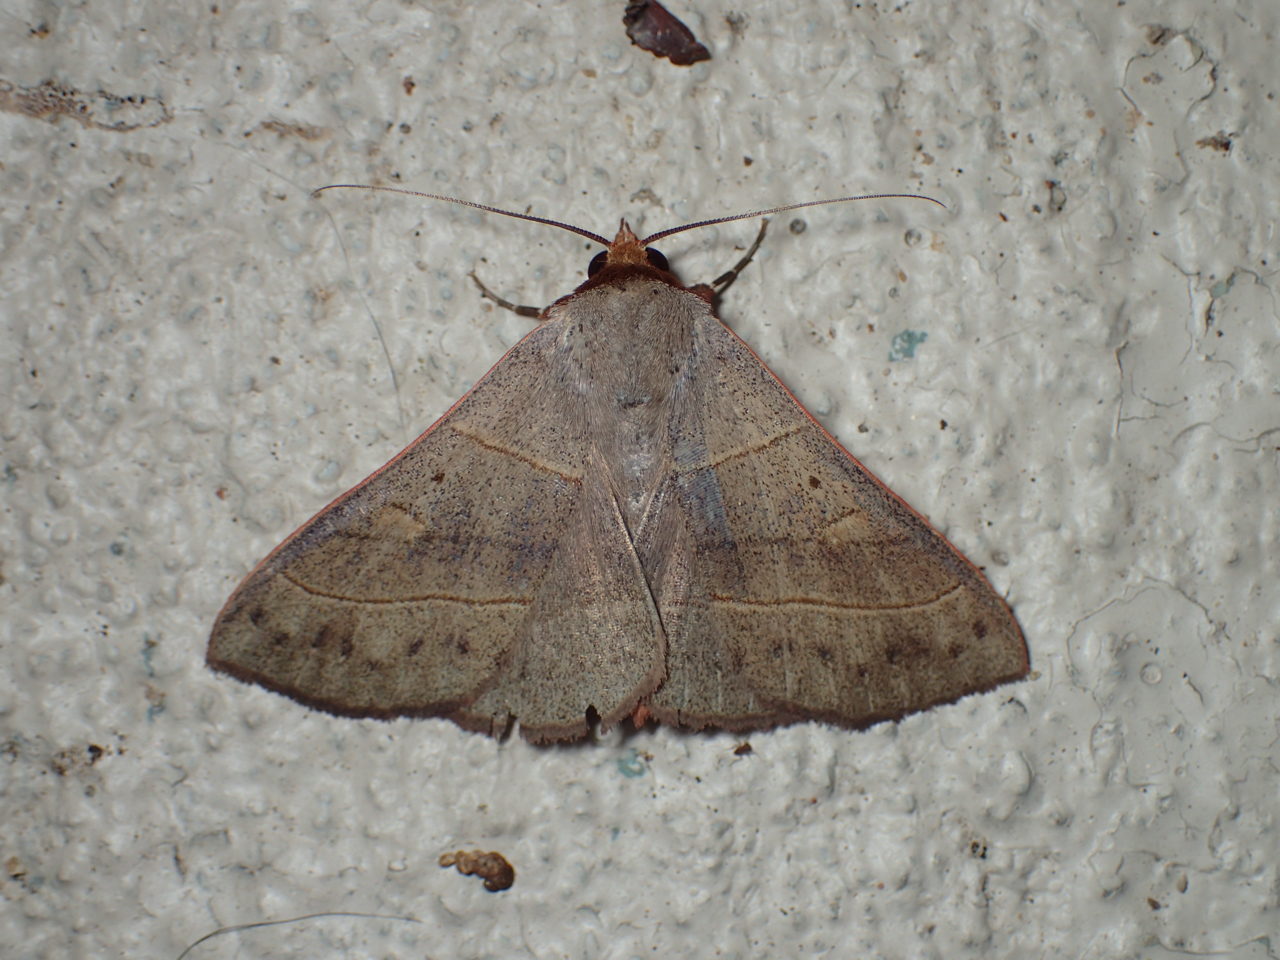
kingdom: Animalia
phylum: Arthropoda
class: Insecta
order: Lepidoptera
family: Erebidae
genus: Panopoda
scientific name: Panopoda rufimargo
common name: Red-lined panopoda moth
